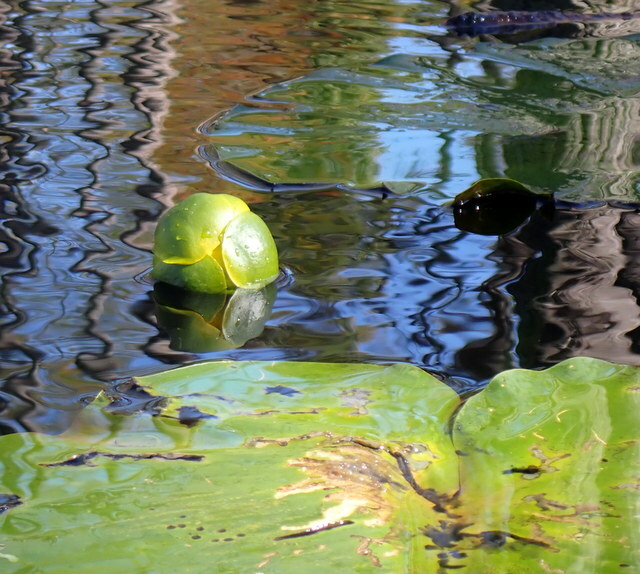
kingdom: Plantae
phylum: Tracheophyta
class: Magnoliopsida
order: Nymphaeales
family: Nymphaeaceae
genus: Nuphar
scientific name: Nuphar advena
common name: Spatter-dock
